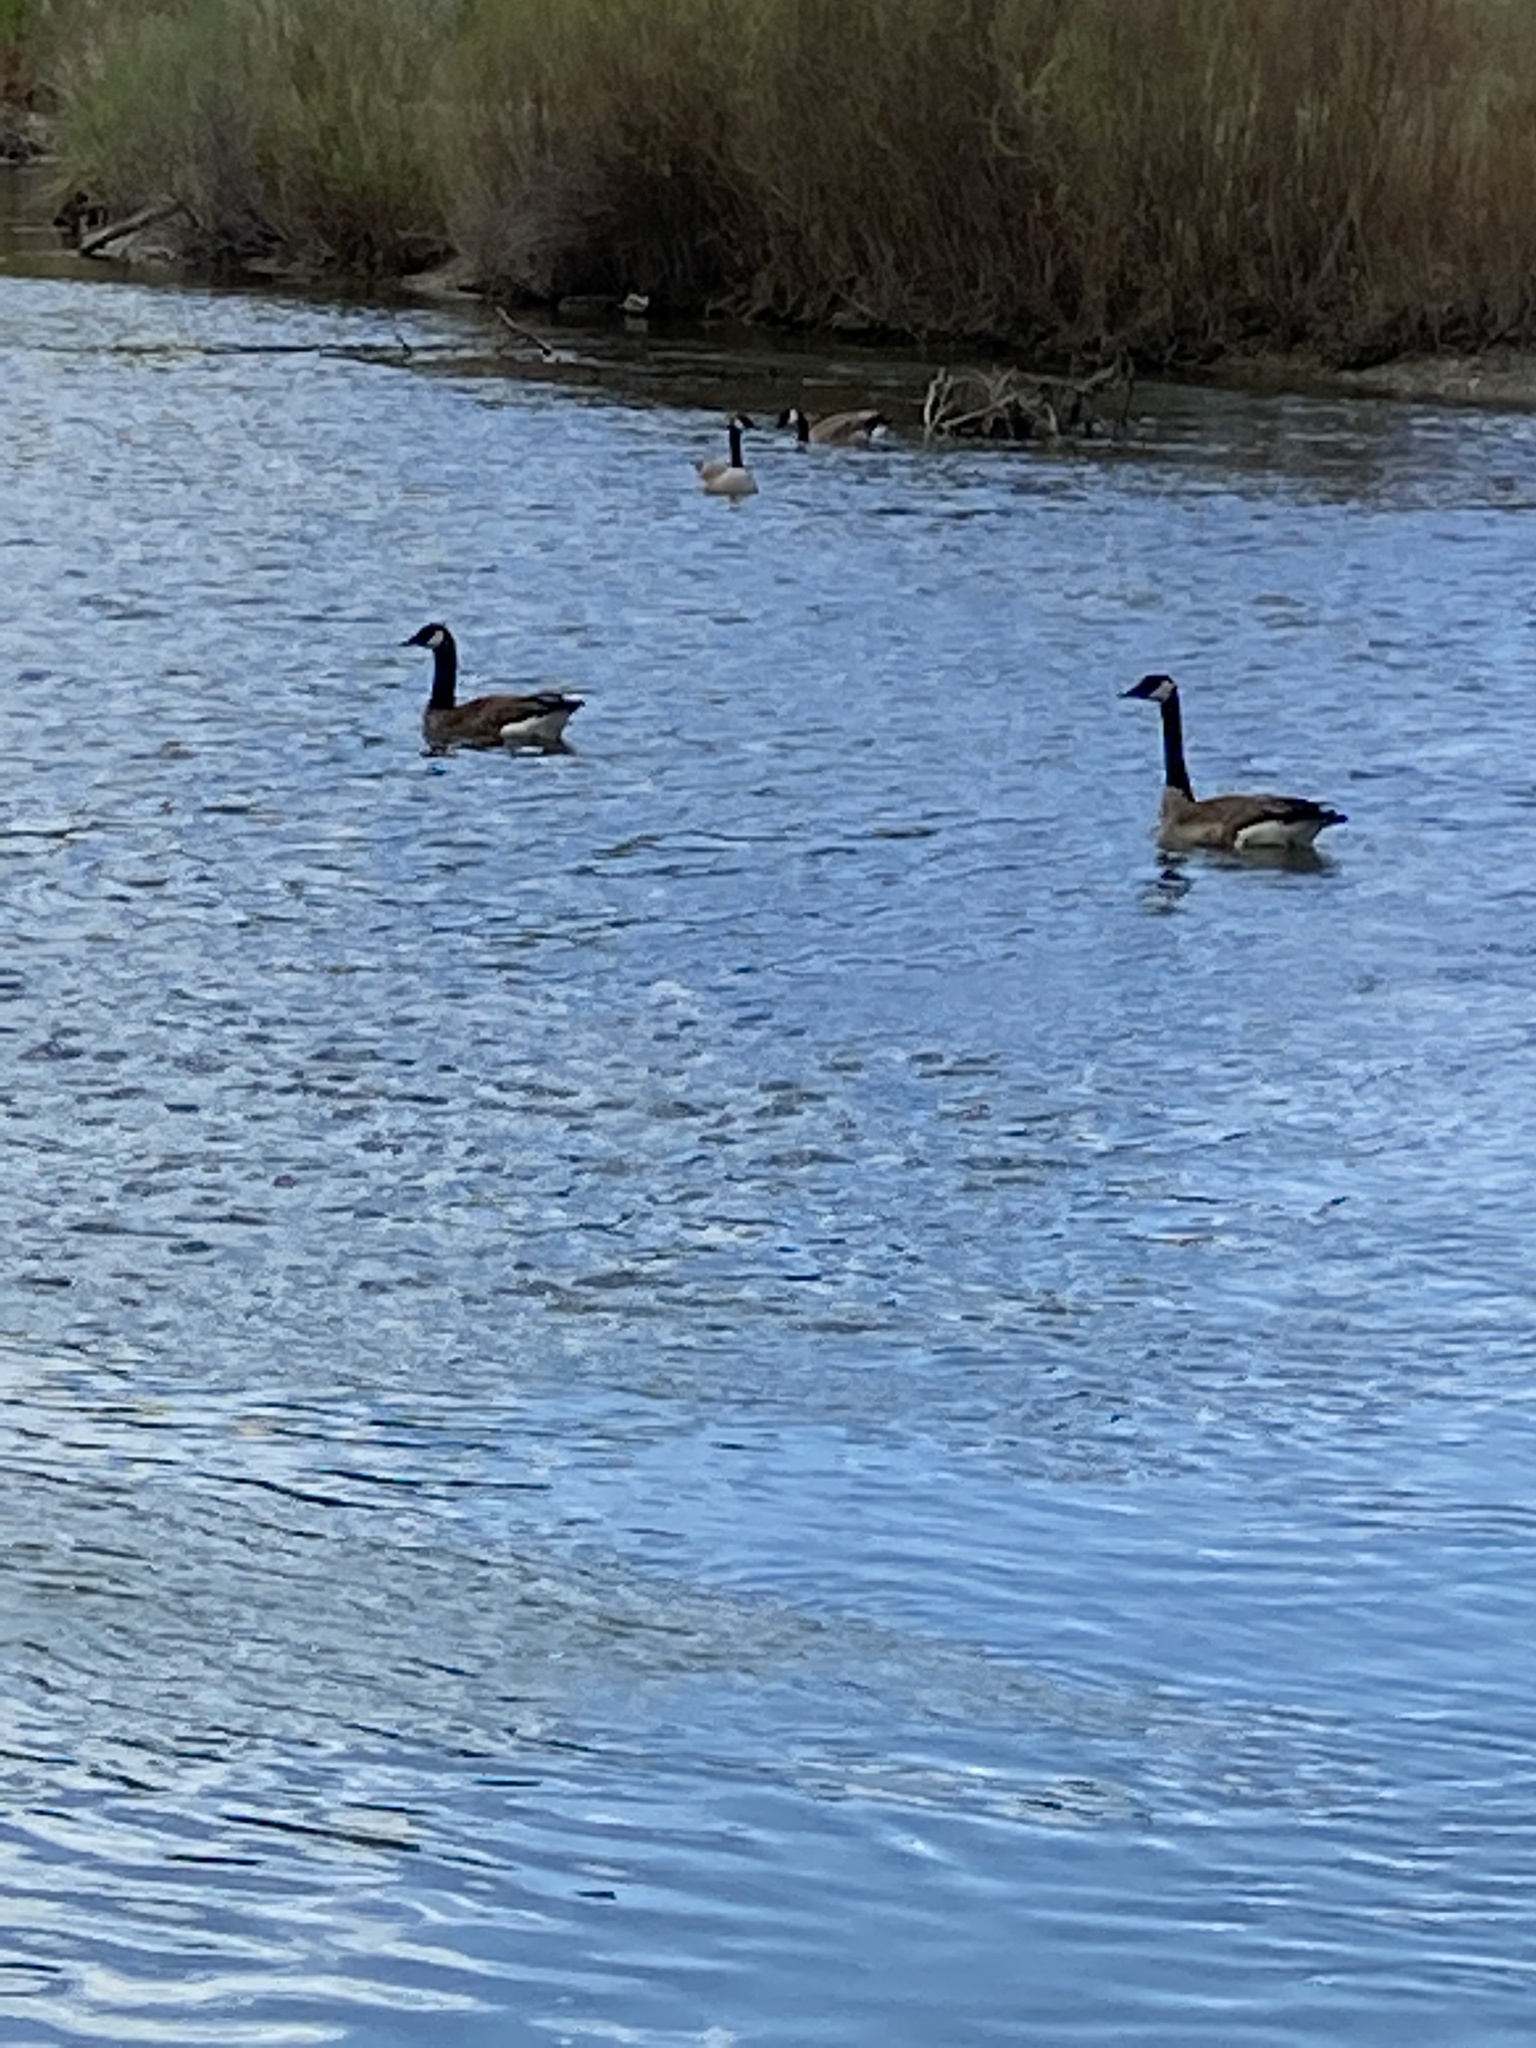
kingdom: Animalia
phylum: Chordata
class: Aves
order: Anseriformes
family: Anatidae
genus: Branta
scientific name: Branta canadensis
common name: Canada goose
